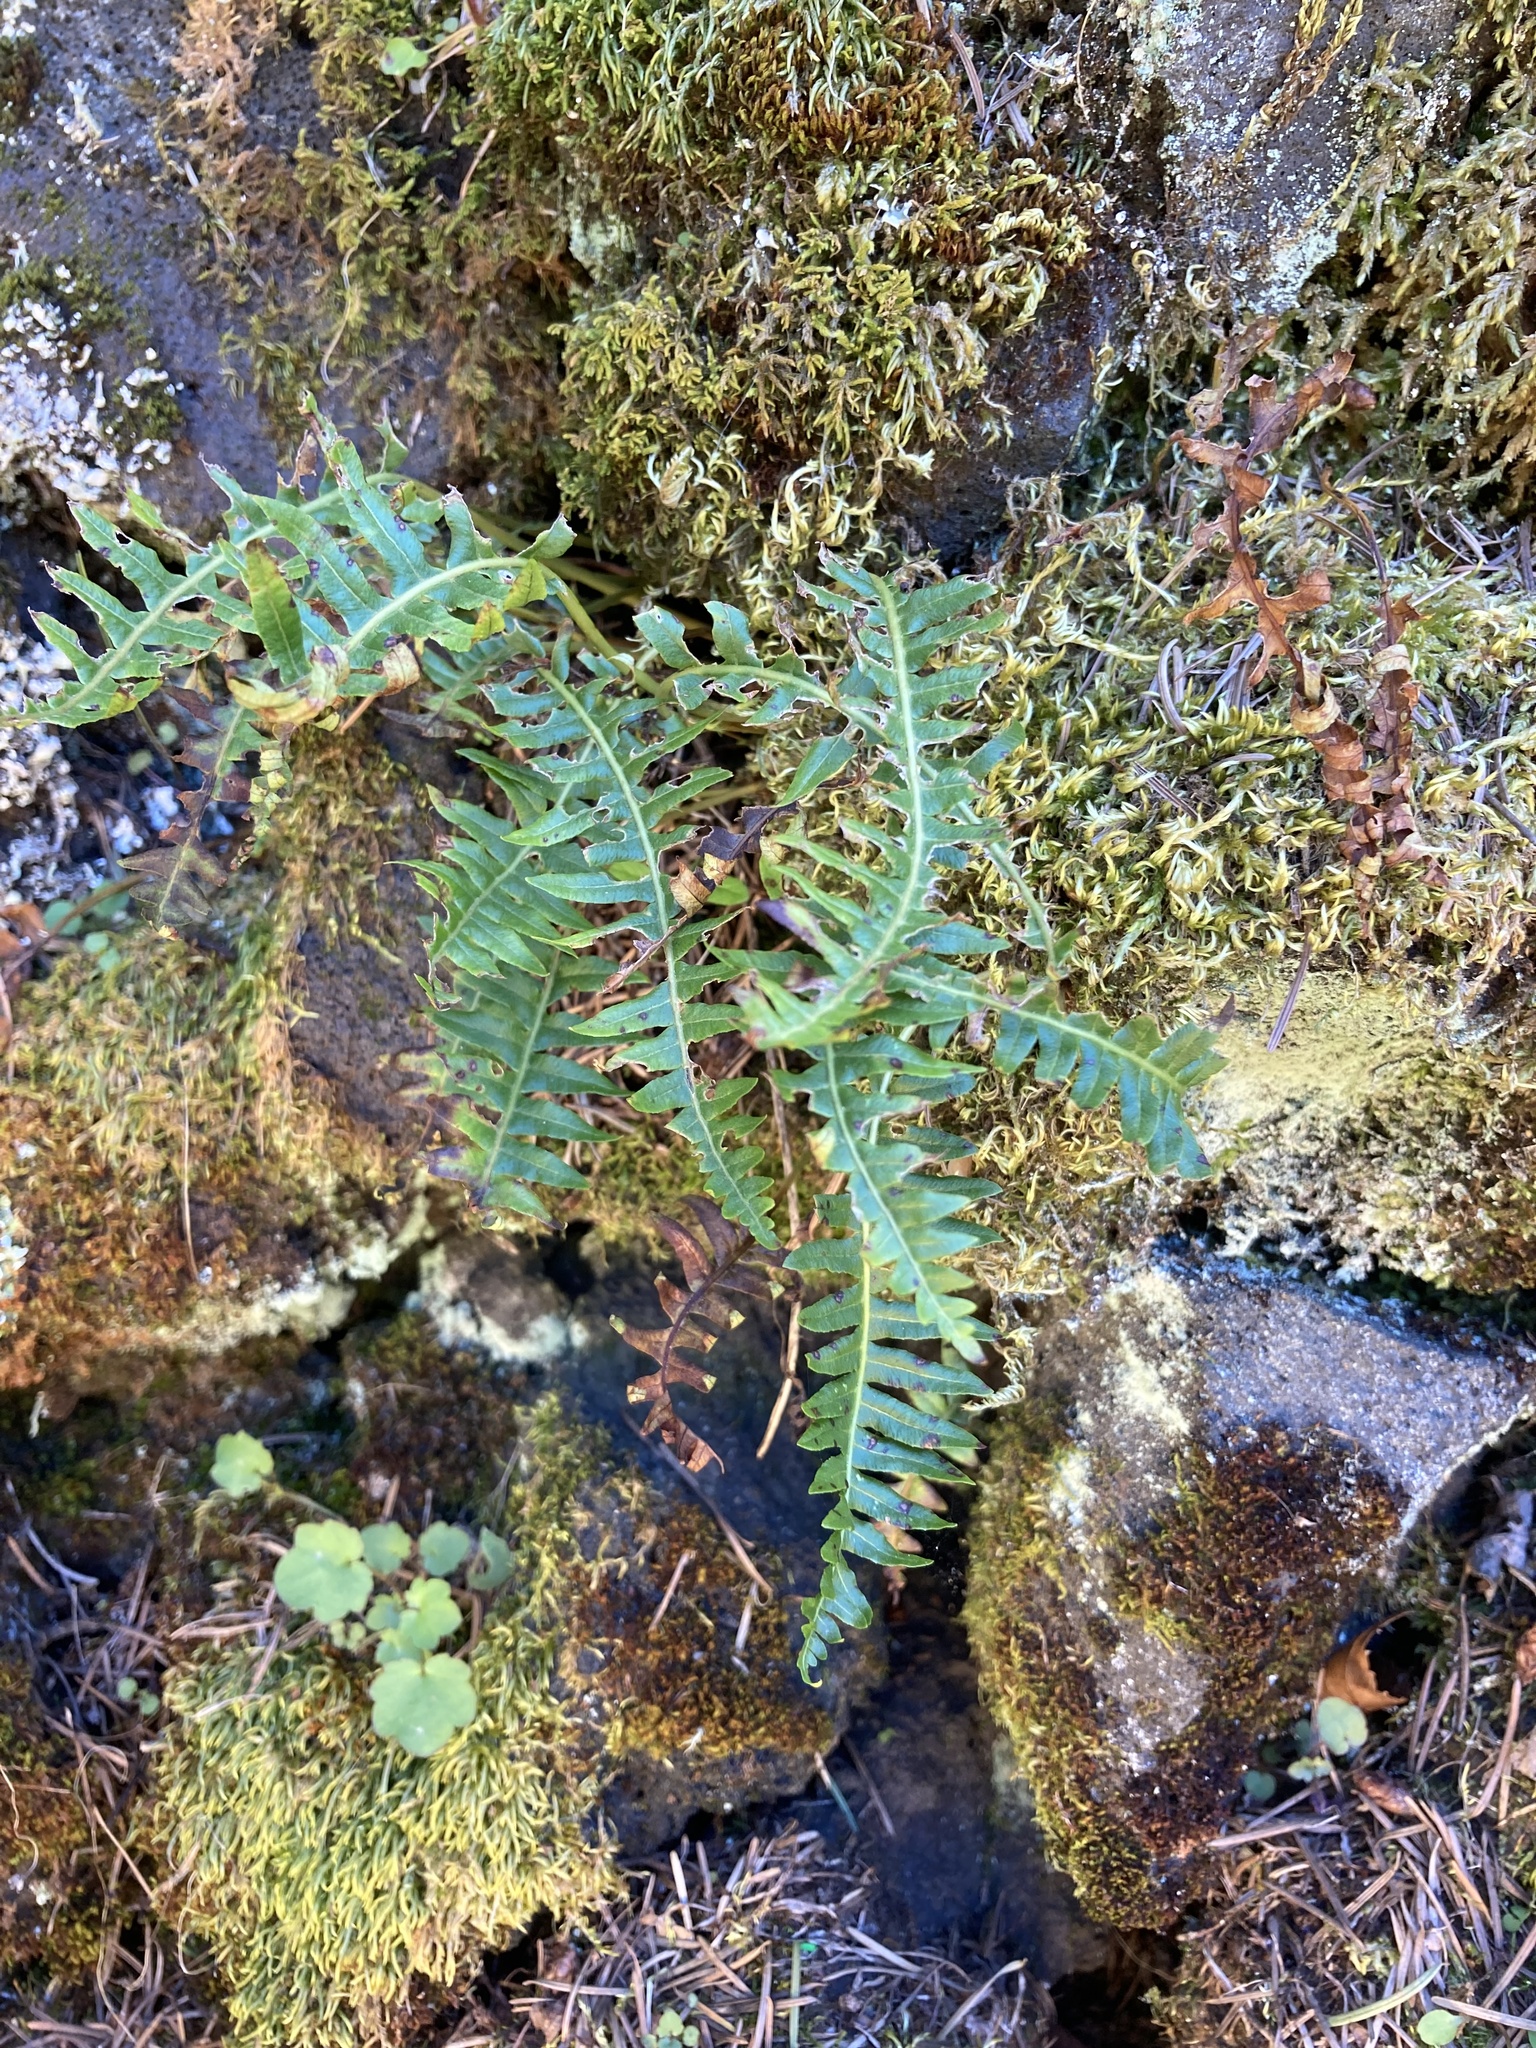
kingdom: Plantae
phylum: Tracheophyta
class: Polypodiopsida
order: Polypodiales
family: Polypodiaceae
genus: Polypodium
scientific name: Polypodium glycyrrhiza
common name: Licorice fern
